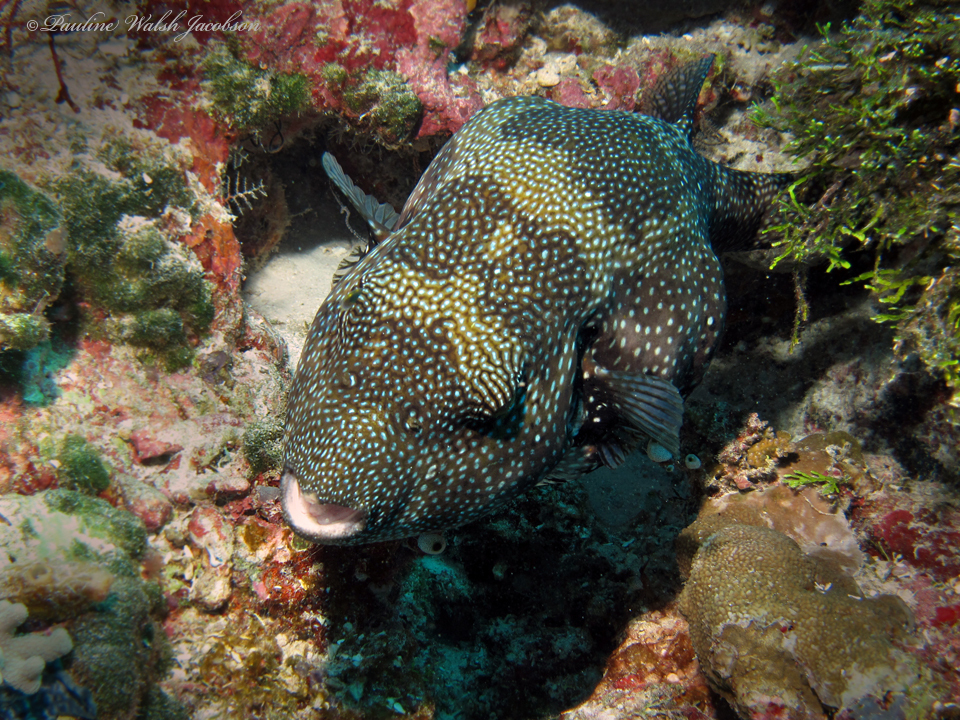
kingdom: Animalia
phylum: Chordata
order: Tetraodontiformes
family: Tetraodontidae
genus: Arothron
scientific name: Arothron caeruleopunctatus
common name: Blue-spotted puffer
